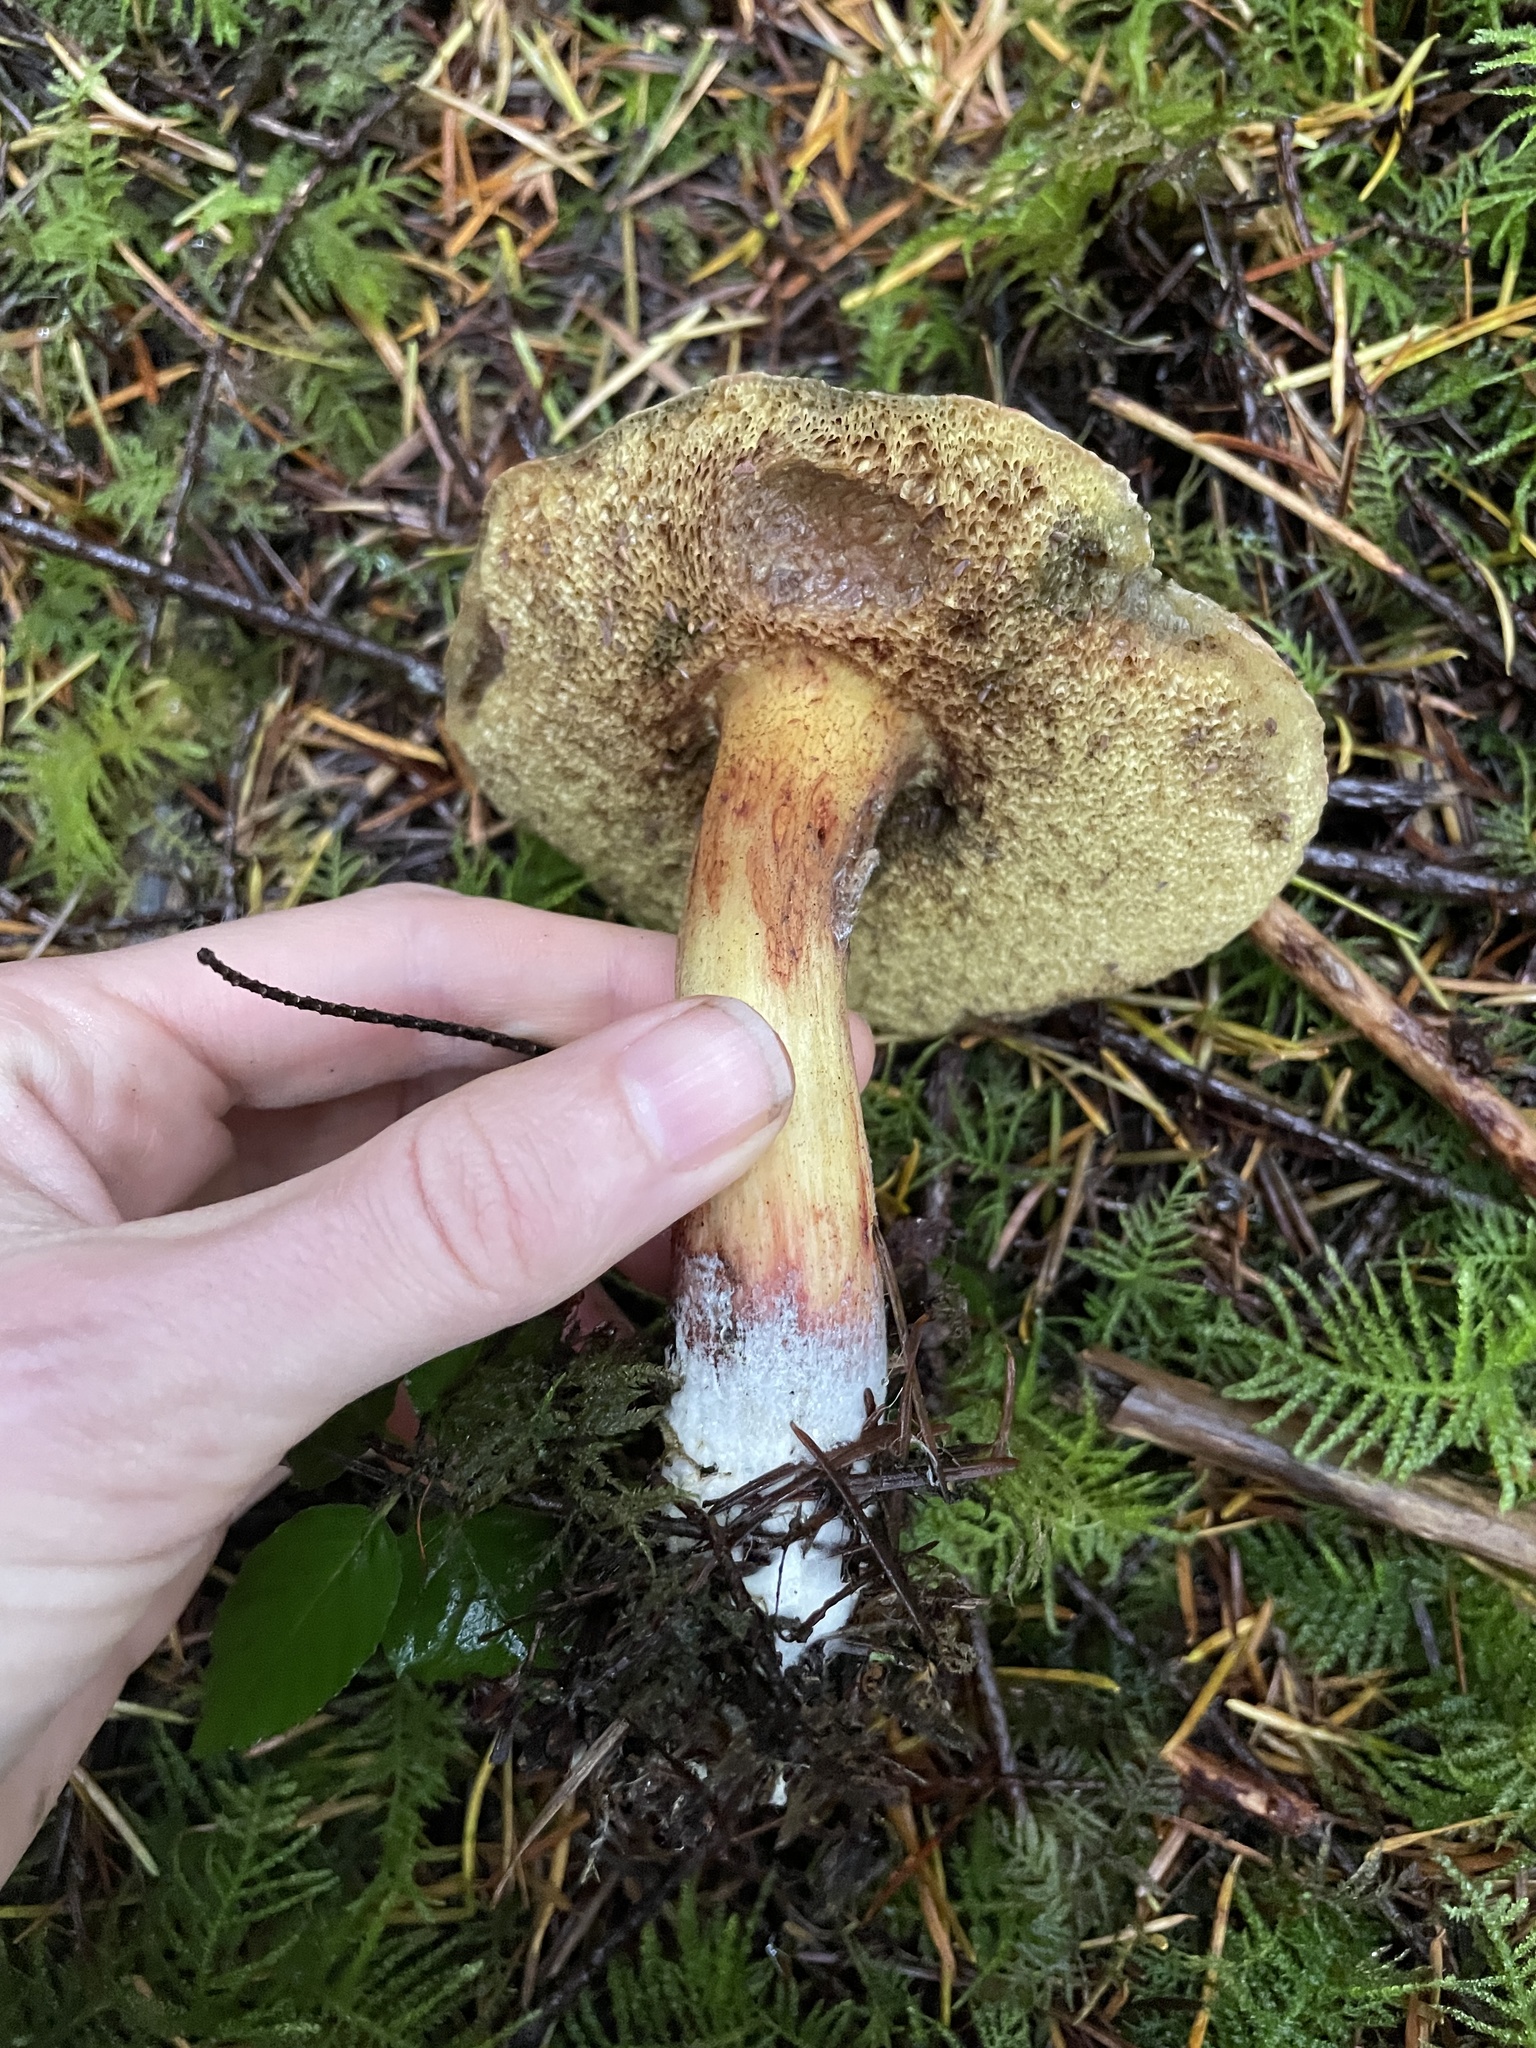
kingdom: Fungi
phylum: Basidiomycota
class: Agaricomycetes
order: Boletales
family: Boletaceae
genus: Xerocomellus
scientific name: Xerocomellus diffractus
